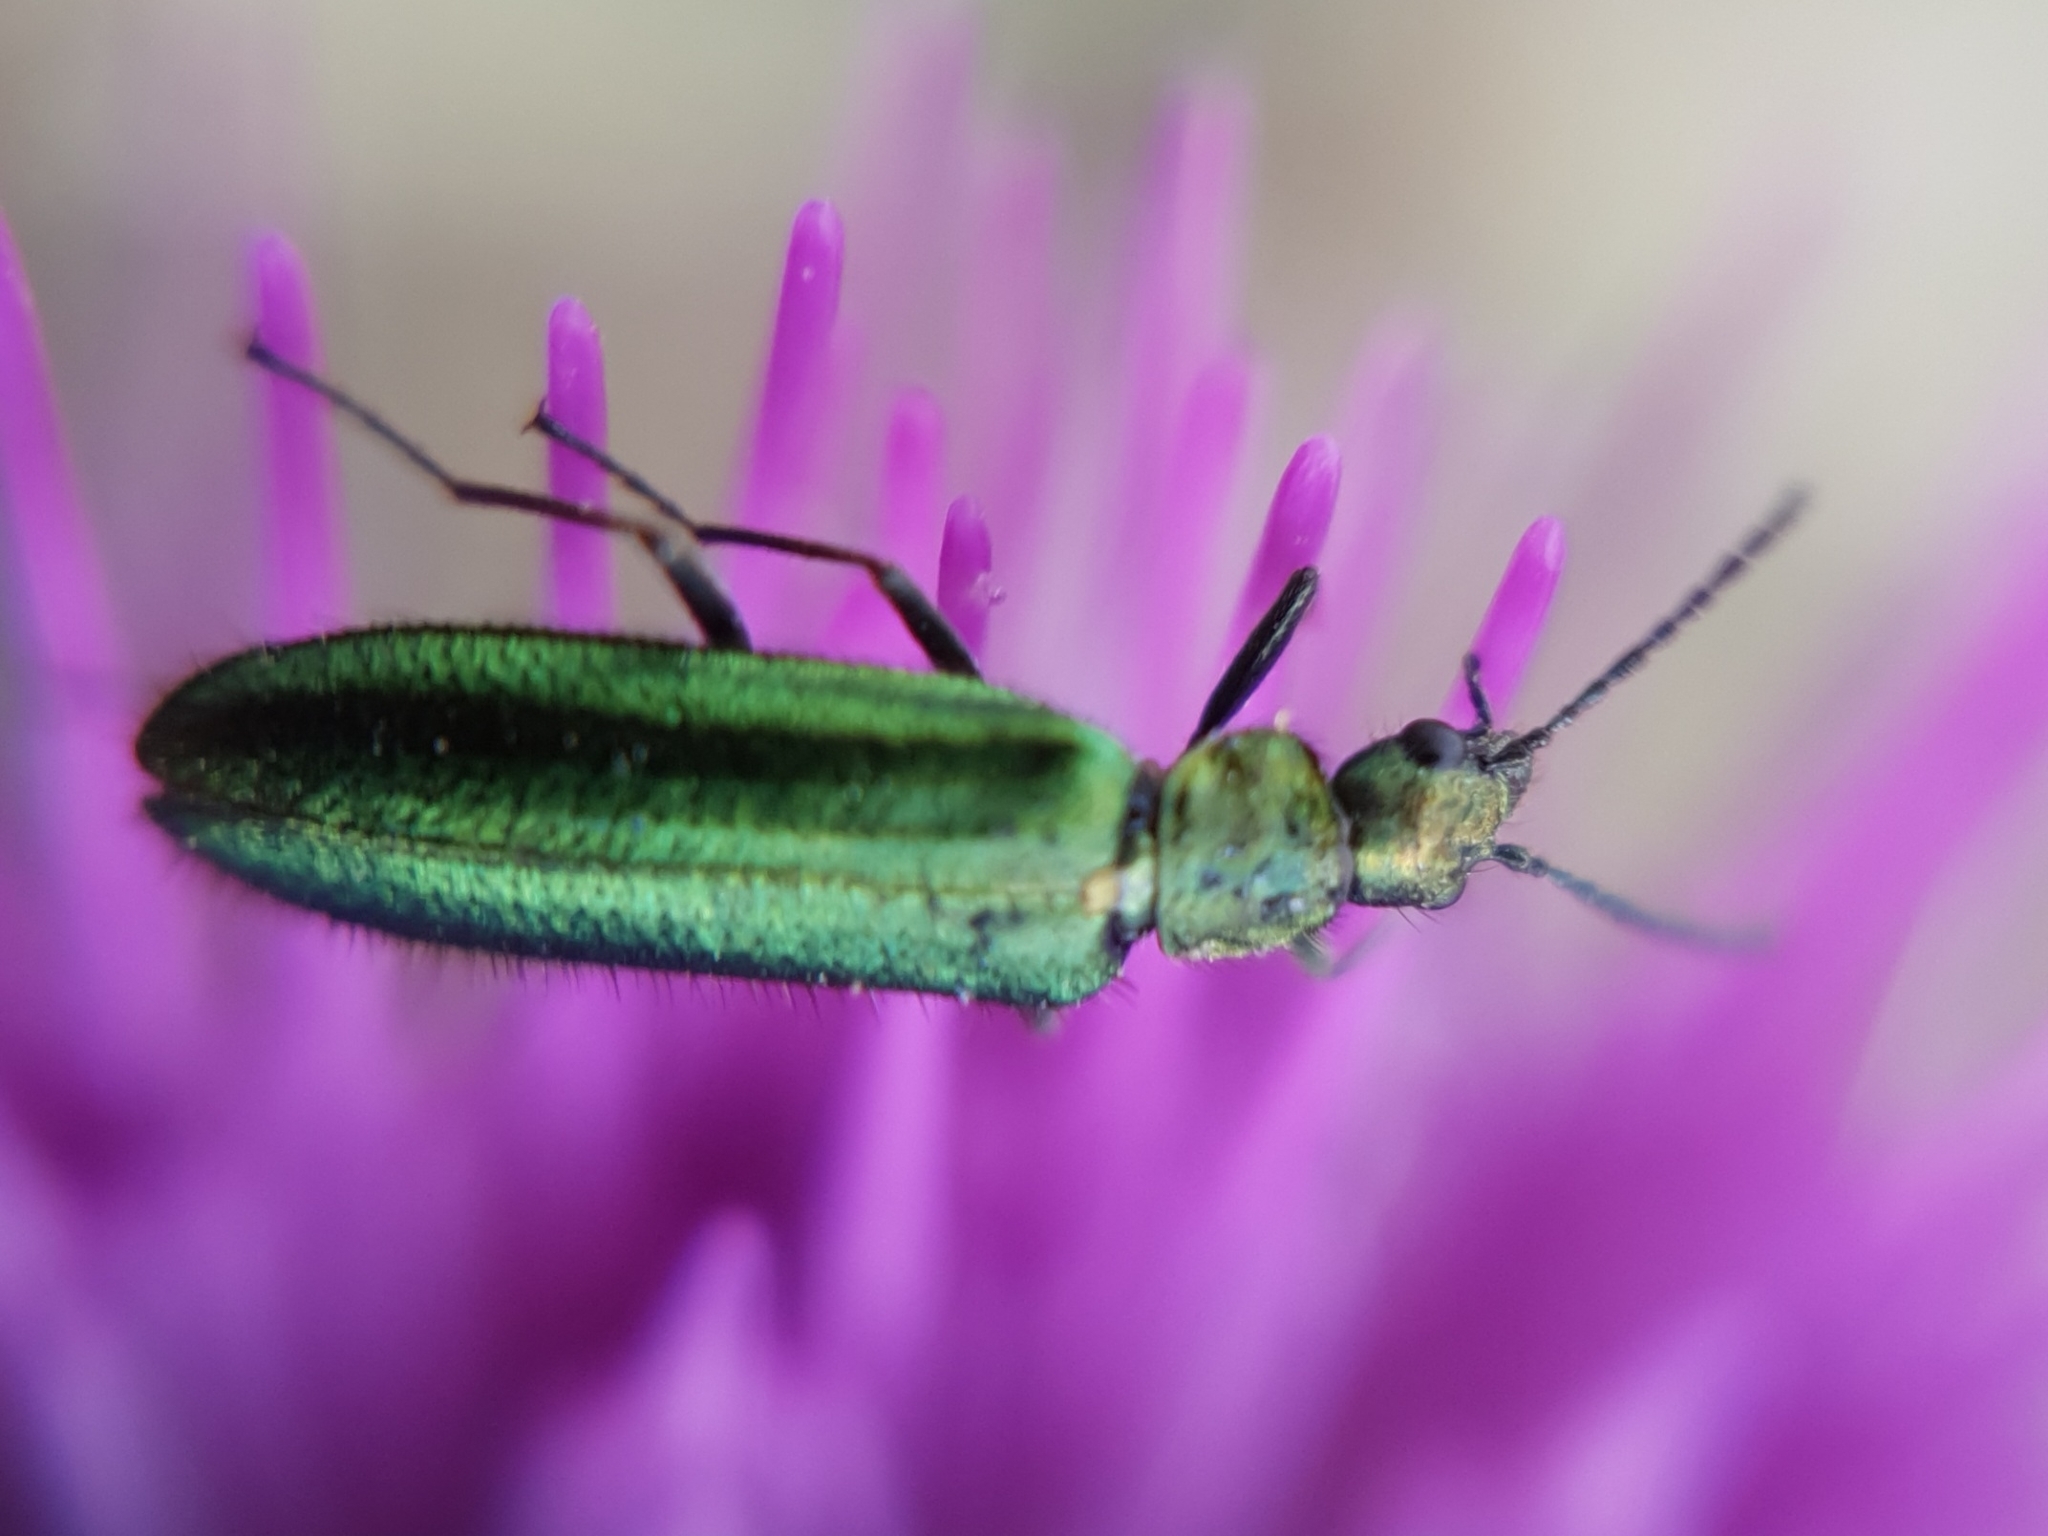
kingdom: Animalia
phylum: Arthropoda
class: Insecta
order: Coleoptera
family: Stenotrachelidae
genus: Stenotrachelus
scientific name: Stenotrachelus aeneus
